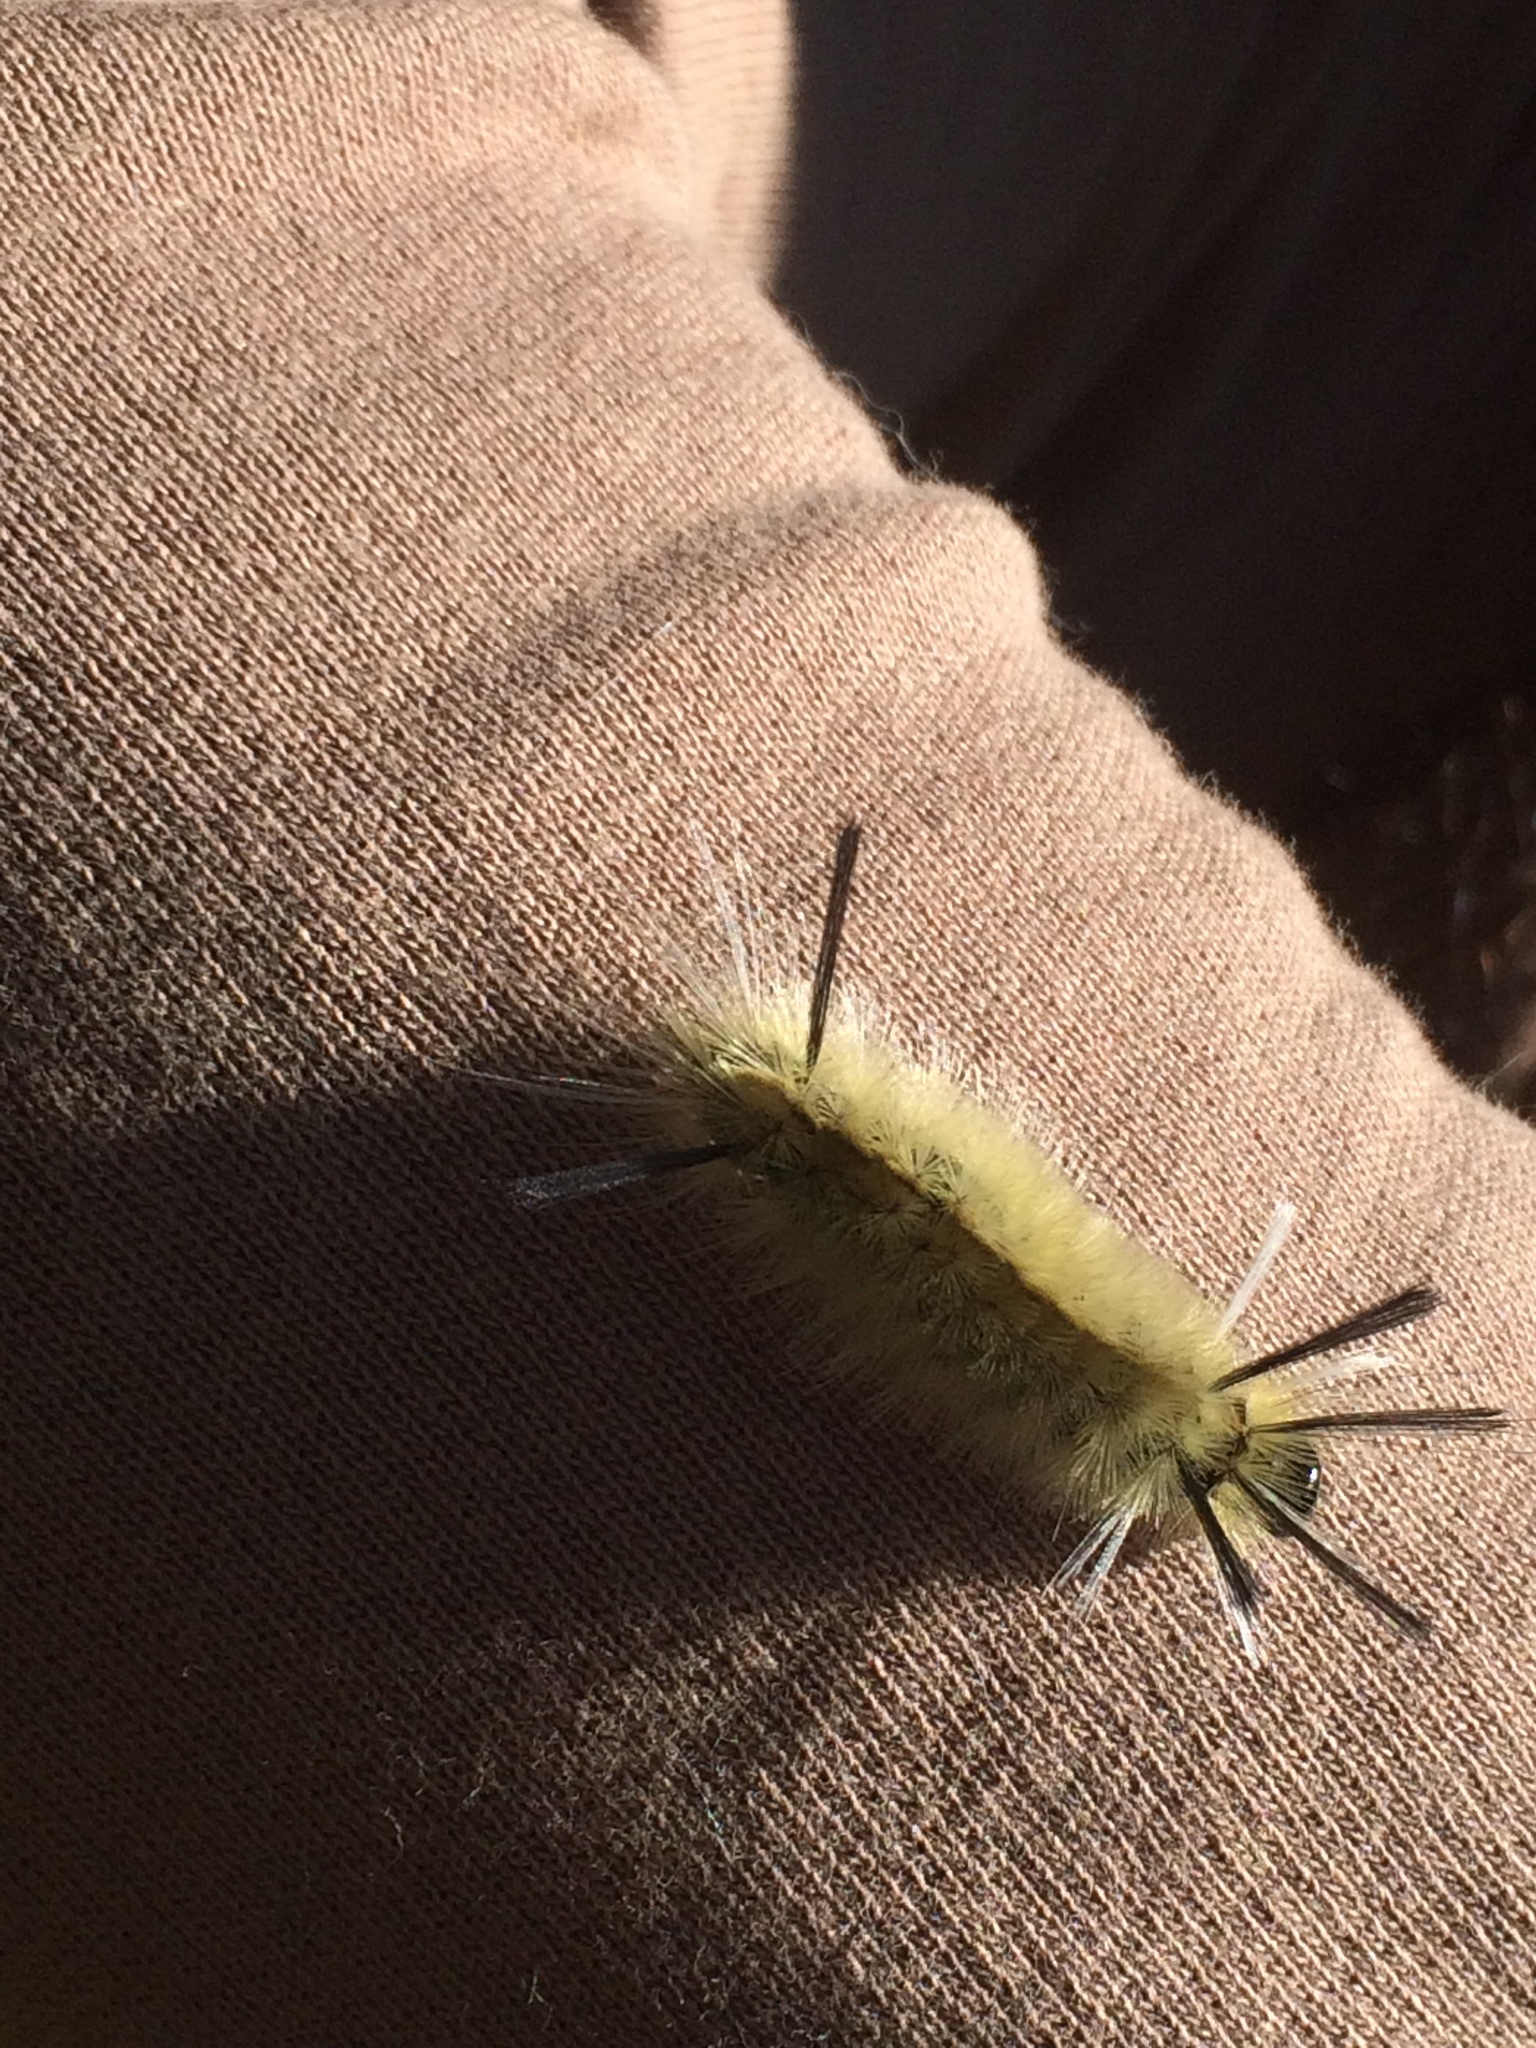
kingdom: Animalia
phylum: Arthropoda
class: Insecta
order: Lepidoptera
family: Erebidae
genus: Halysidota
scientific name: Halysidota tessellaris
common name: Banded tussock moth
